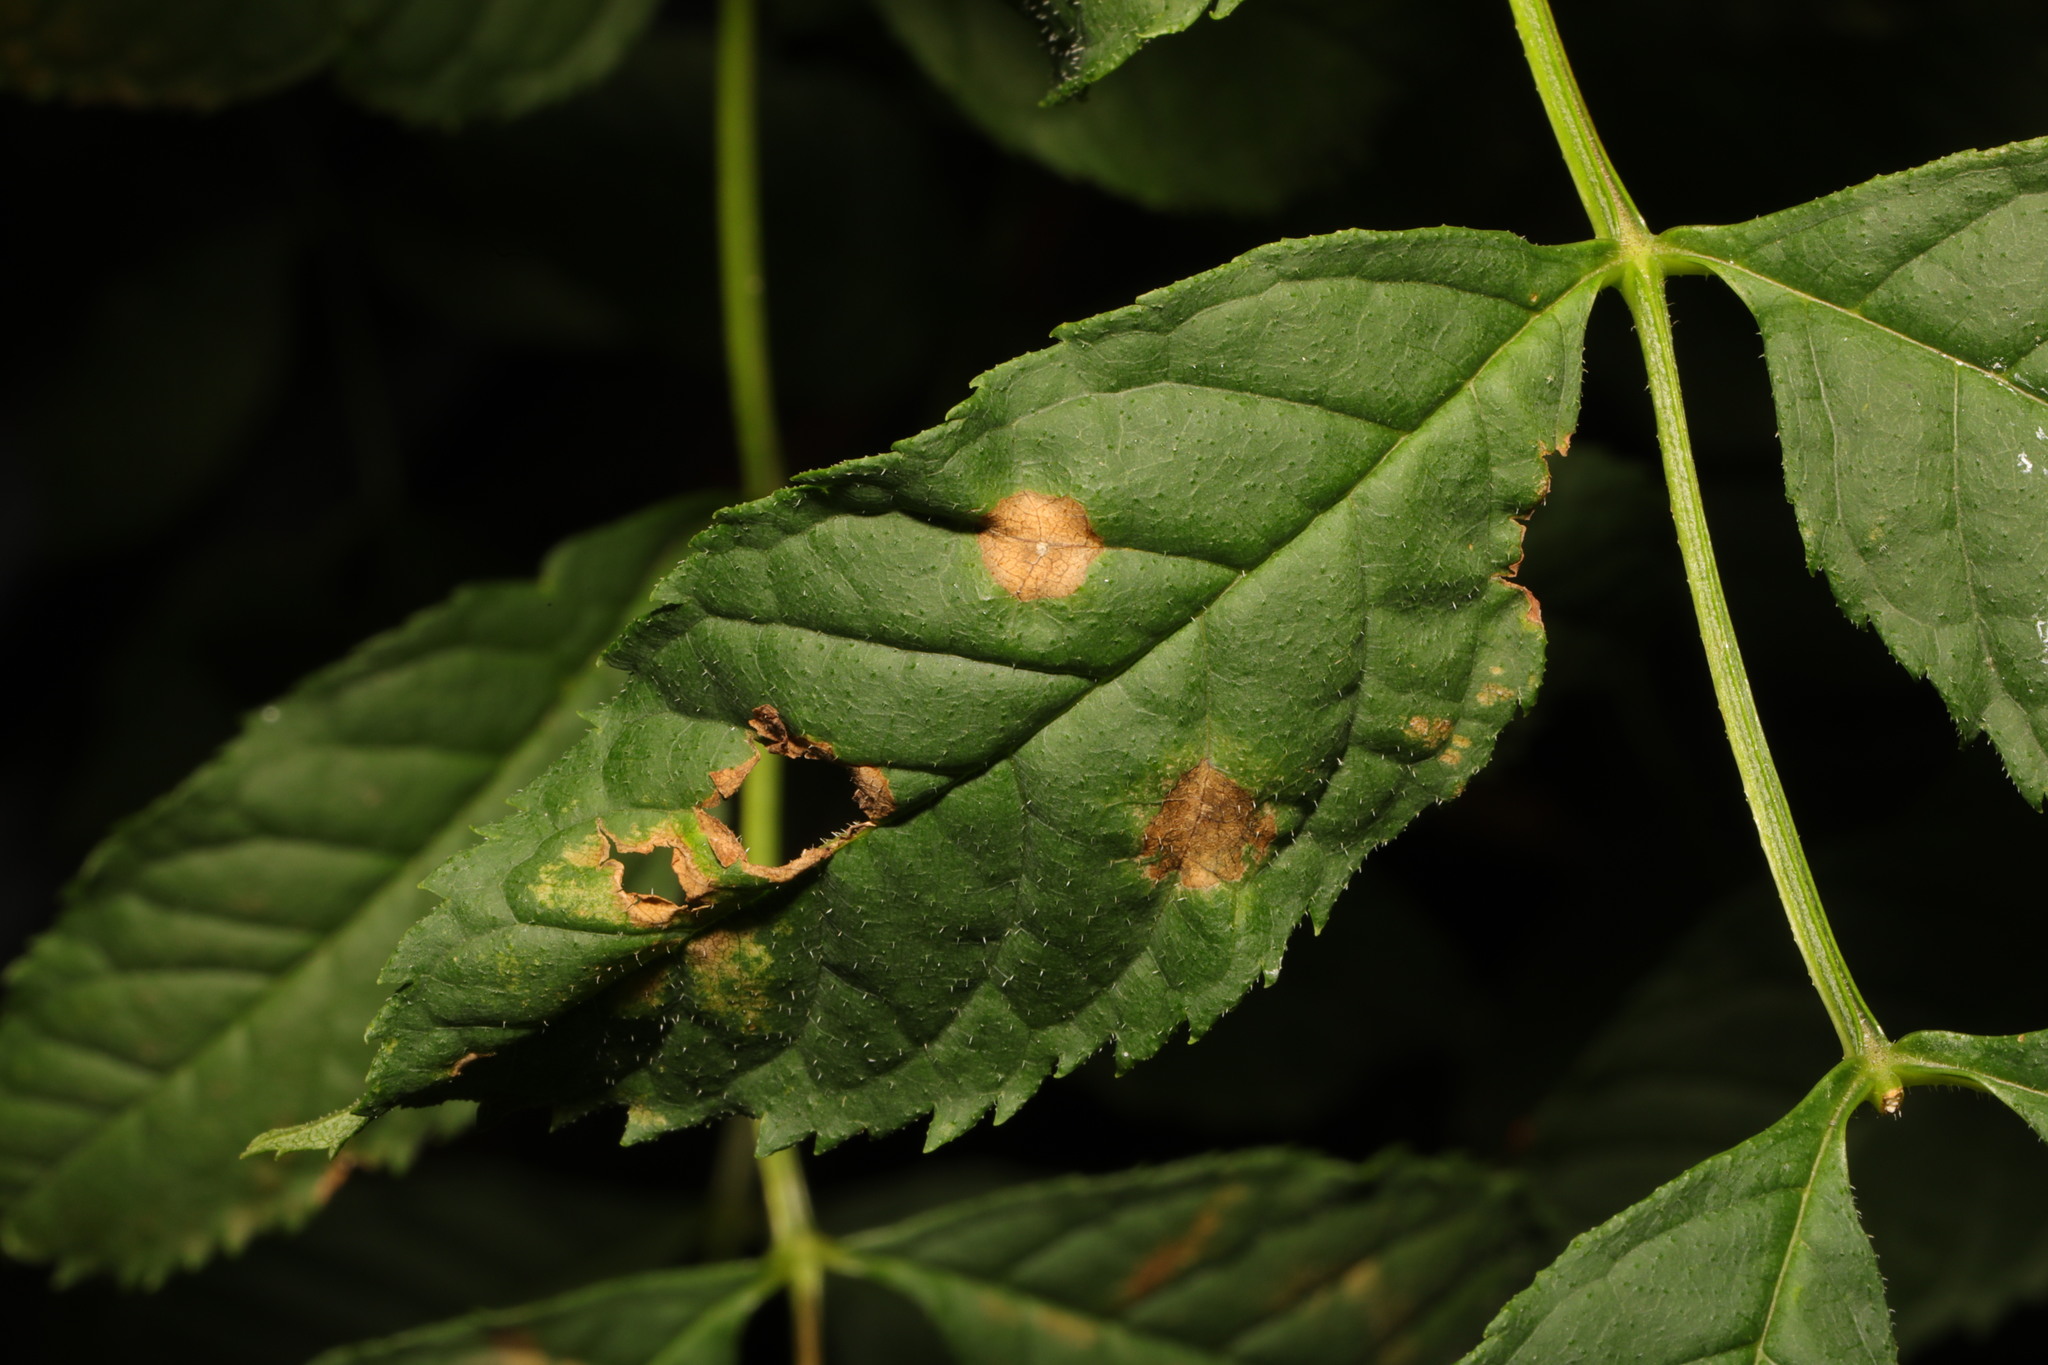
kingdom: Animalia
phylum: Arthropoda
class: Insecta
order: Diptera
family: Cecidomyiidae
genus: Dasineura
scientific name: Dasineura fraxinea
